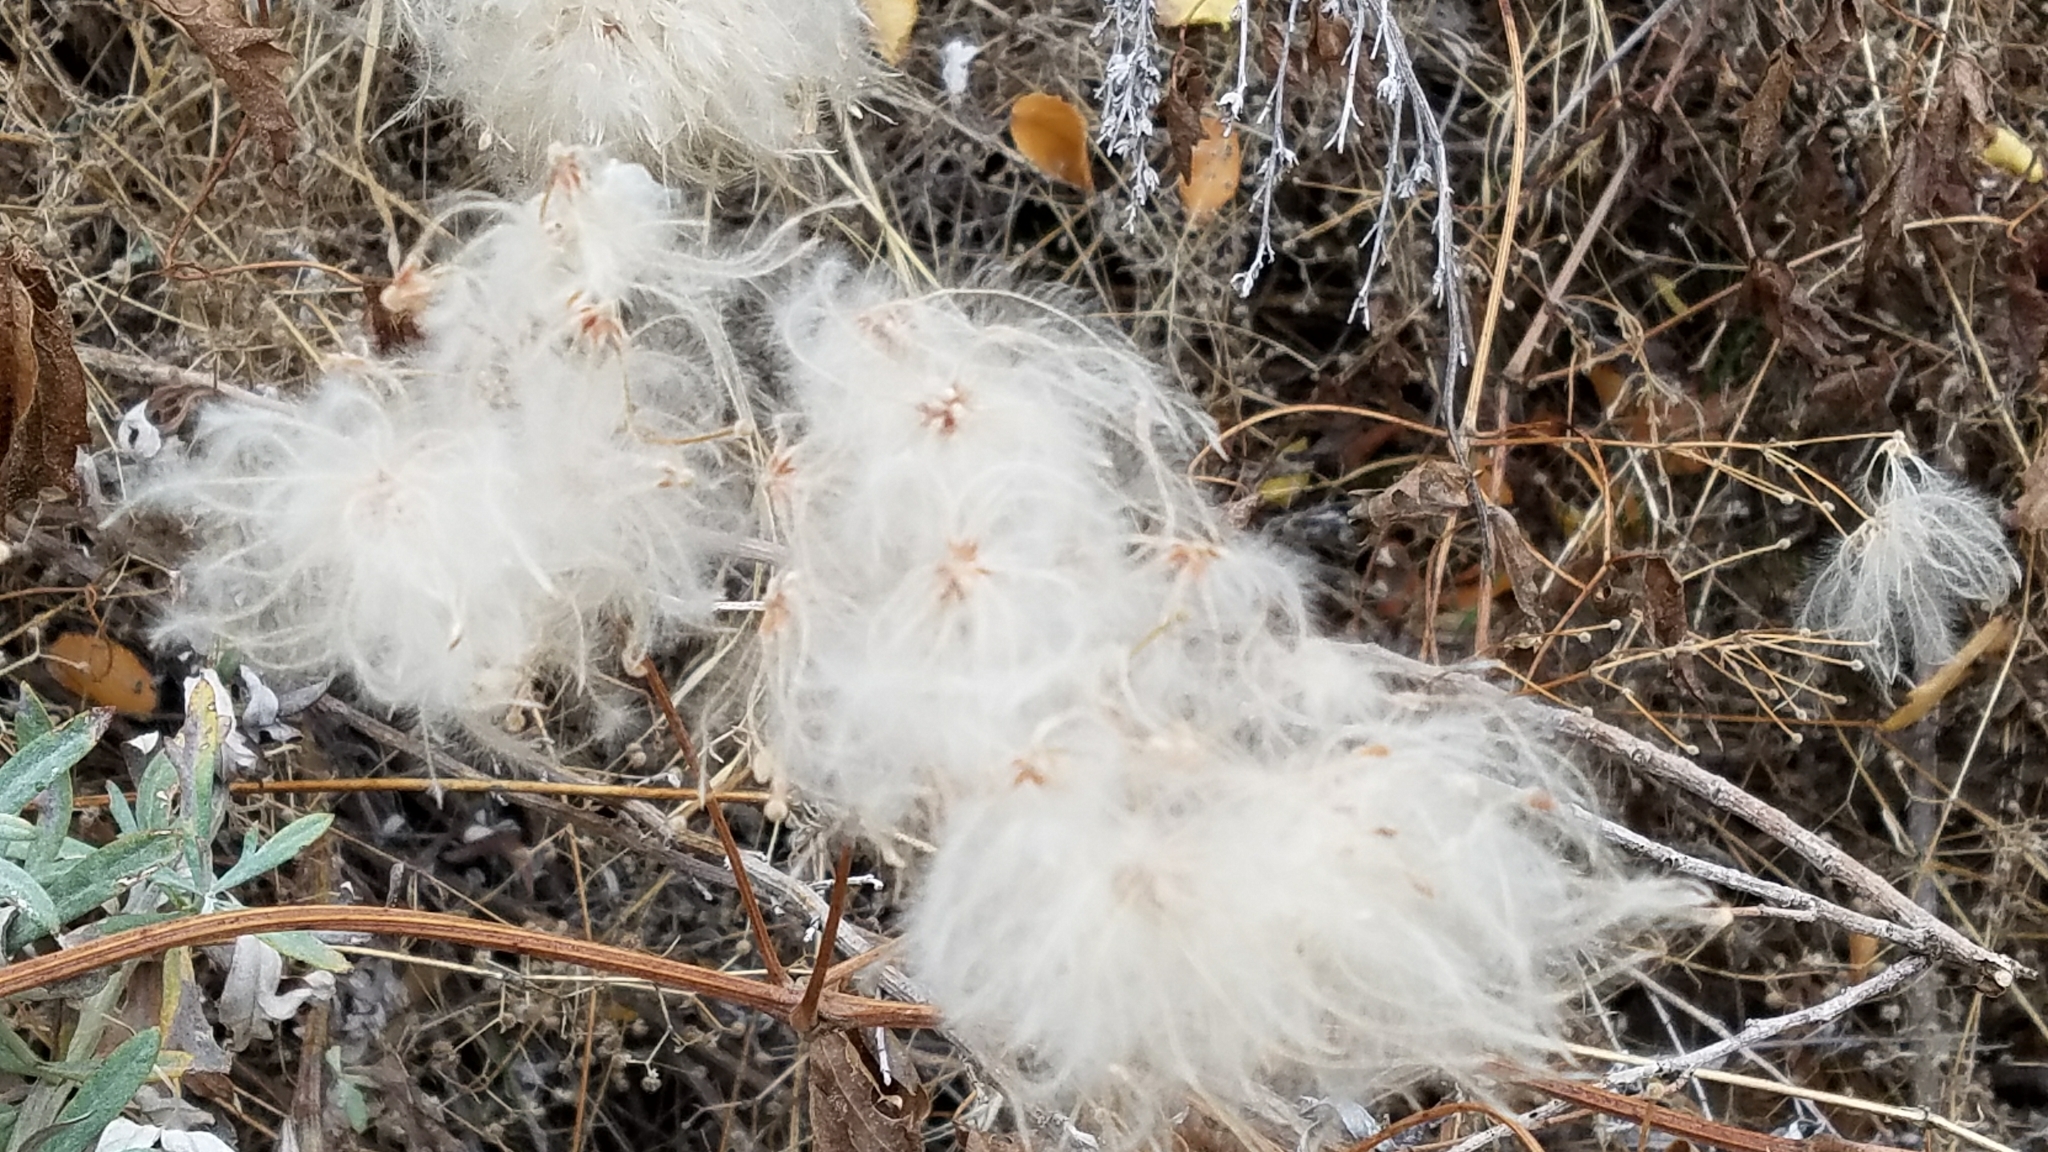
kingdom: Plantae
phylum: Tracheophyta
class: Magnoliopsida
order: Ranunculales
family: Ranunculaceae
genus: Clematis
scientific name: Clematis ligusticifolia
